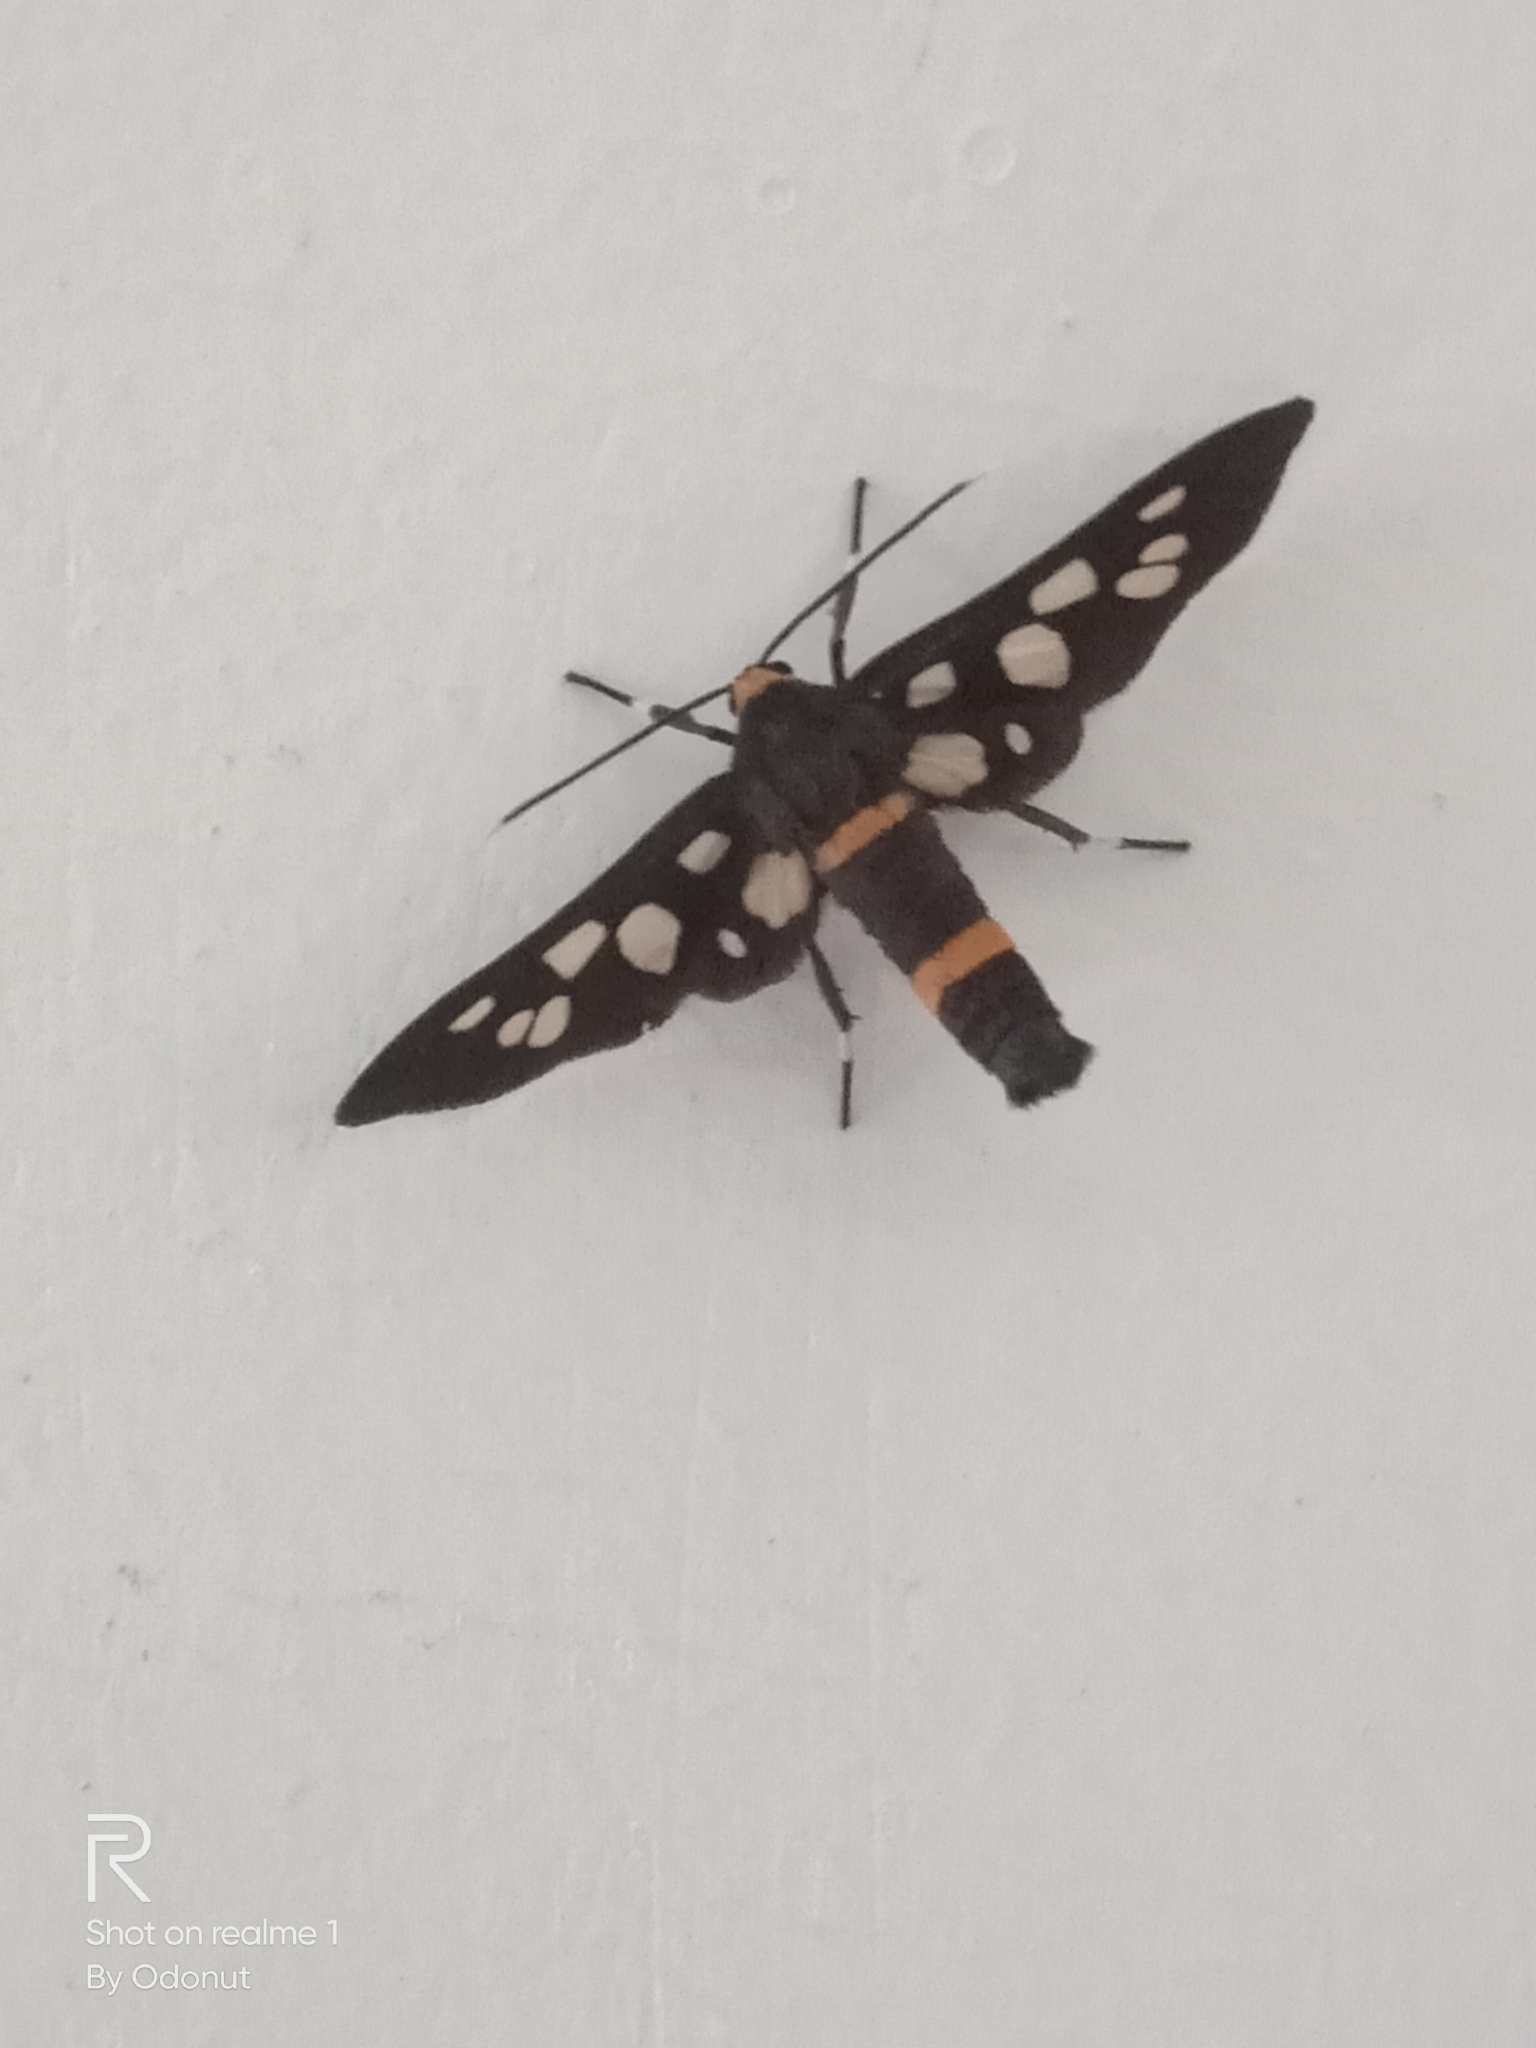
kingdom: Animalia
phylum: Arthropoda
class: Insecta
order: Lepidoptera
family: Erebidae
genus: Amata
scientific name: Amata cyssea
